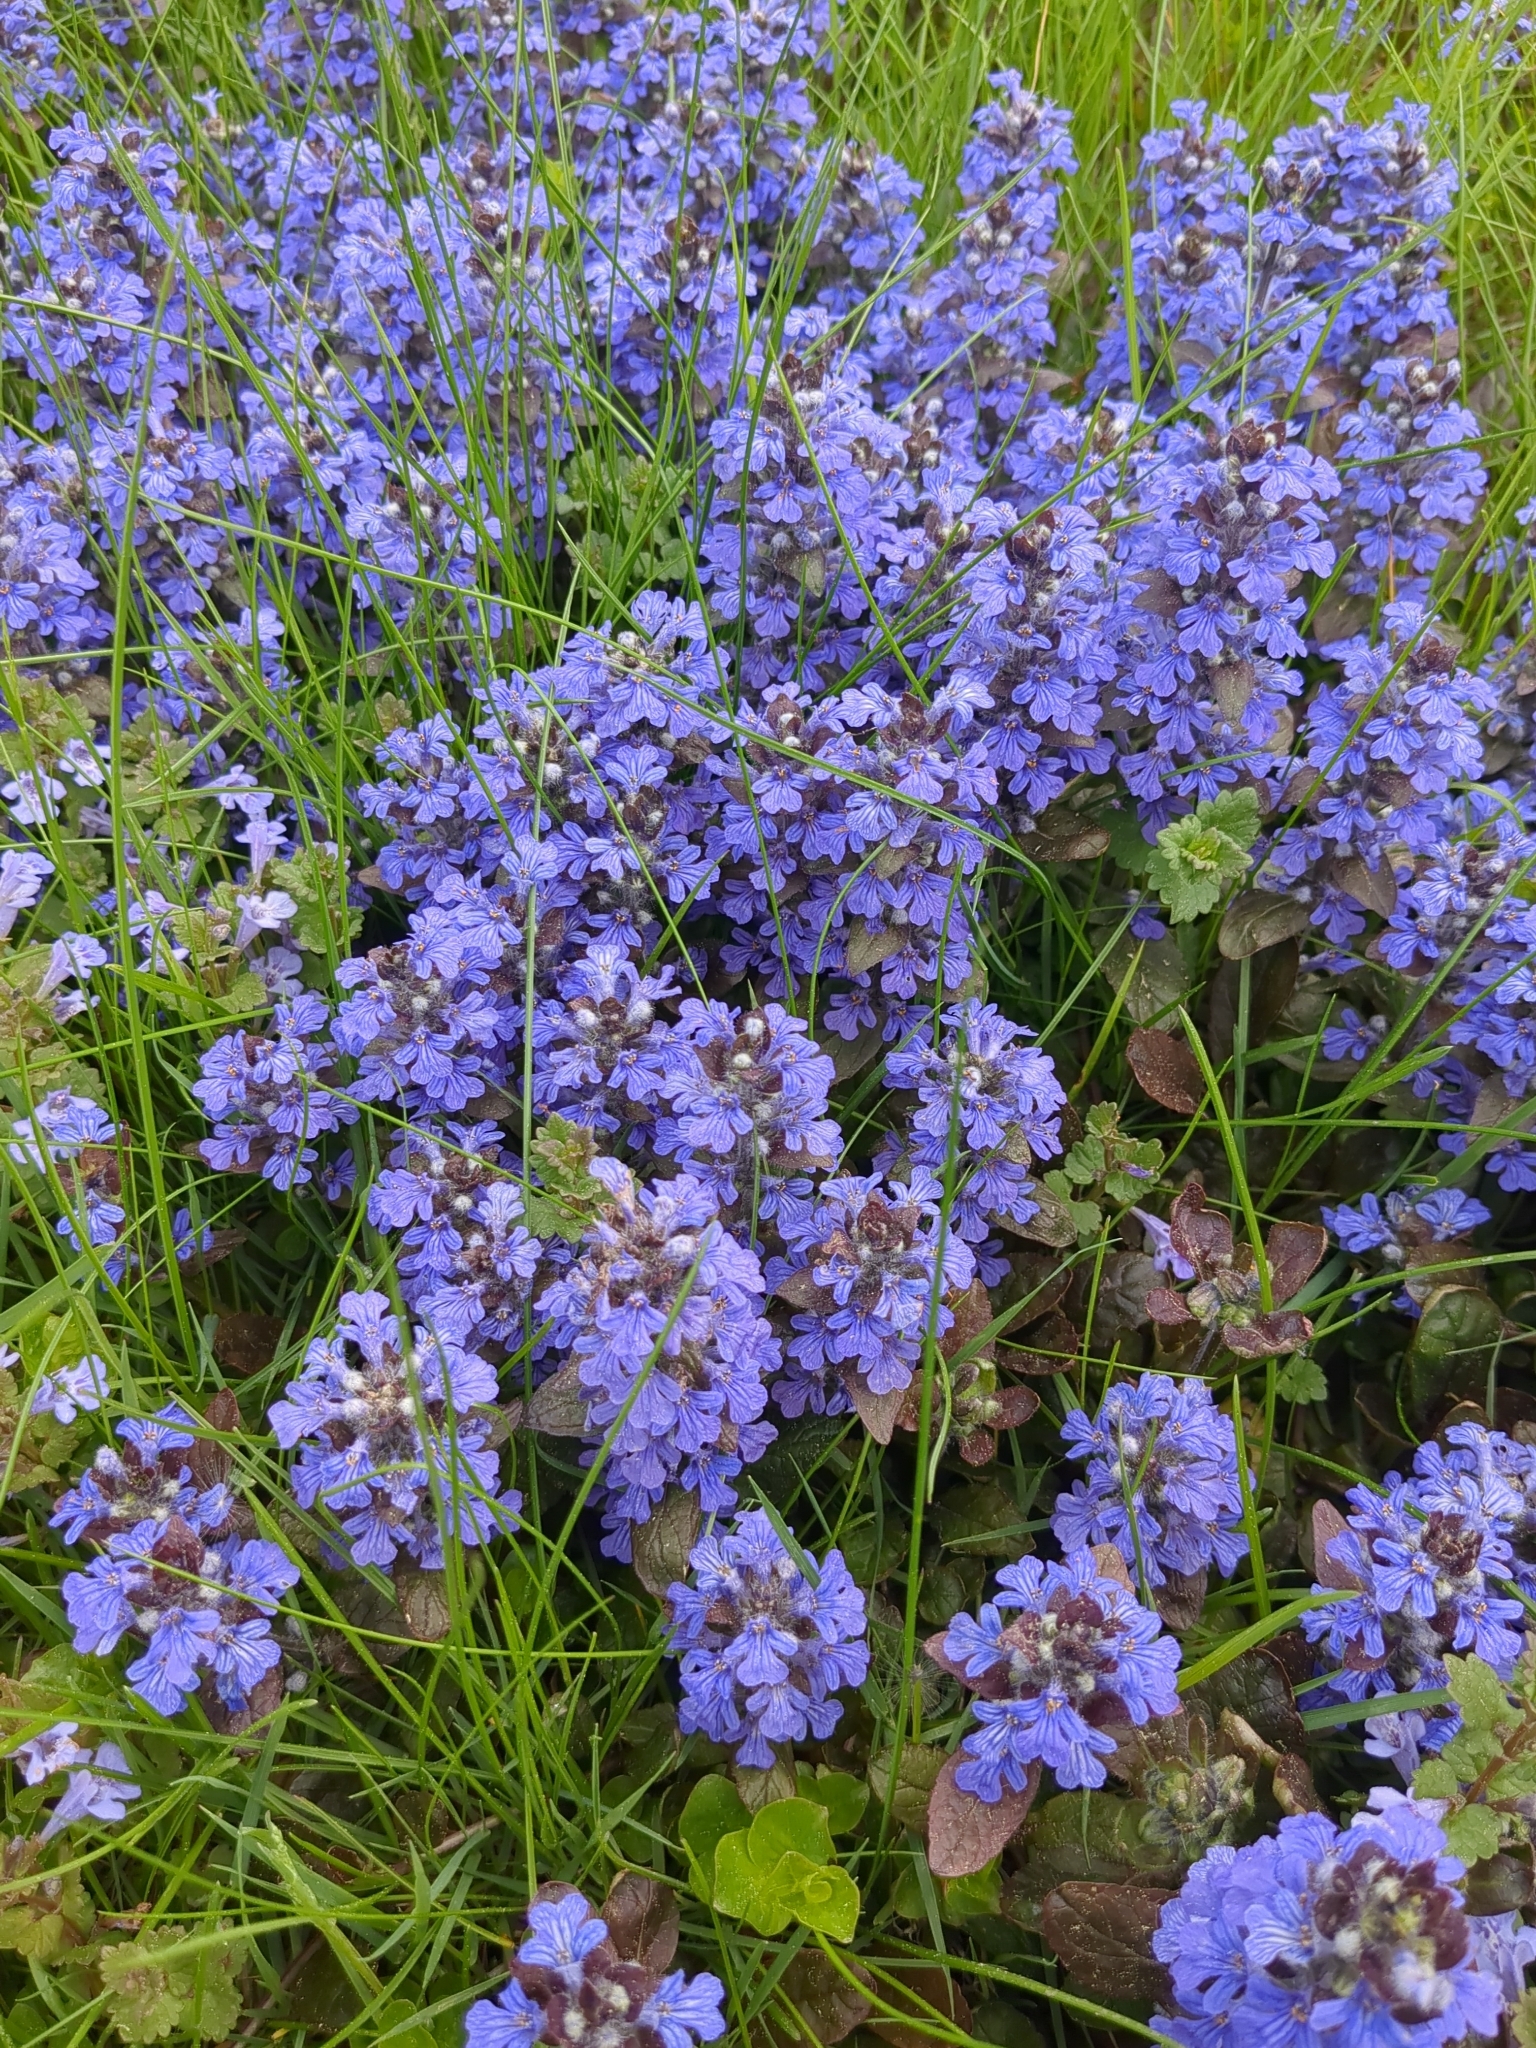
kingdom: Plantae
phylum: Tracheophyta
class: Magnoliopsida
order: Lamiales
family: Lamiaceae
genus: Ajuga
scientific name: Ajuga reptans
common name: Bugle
